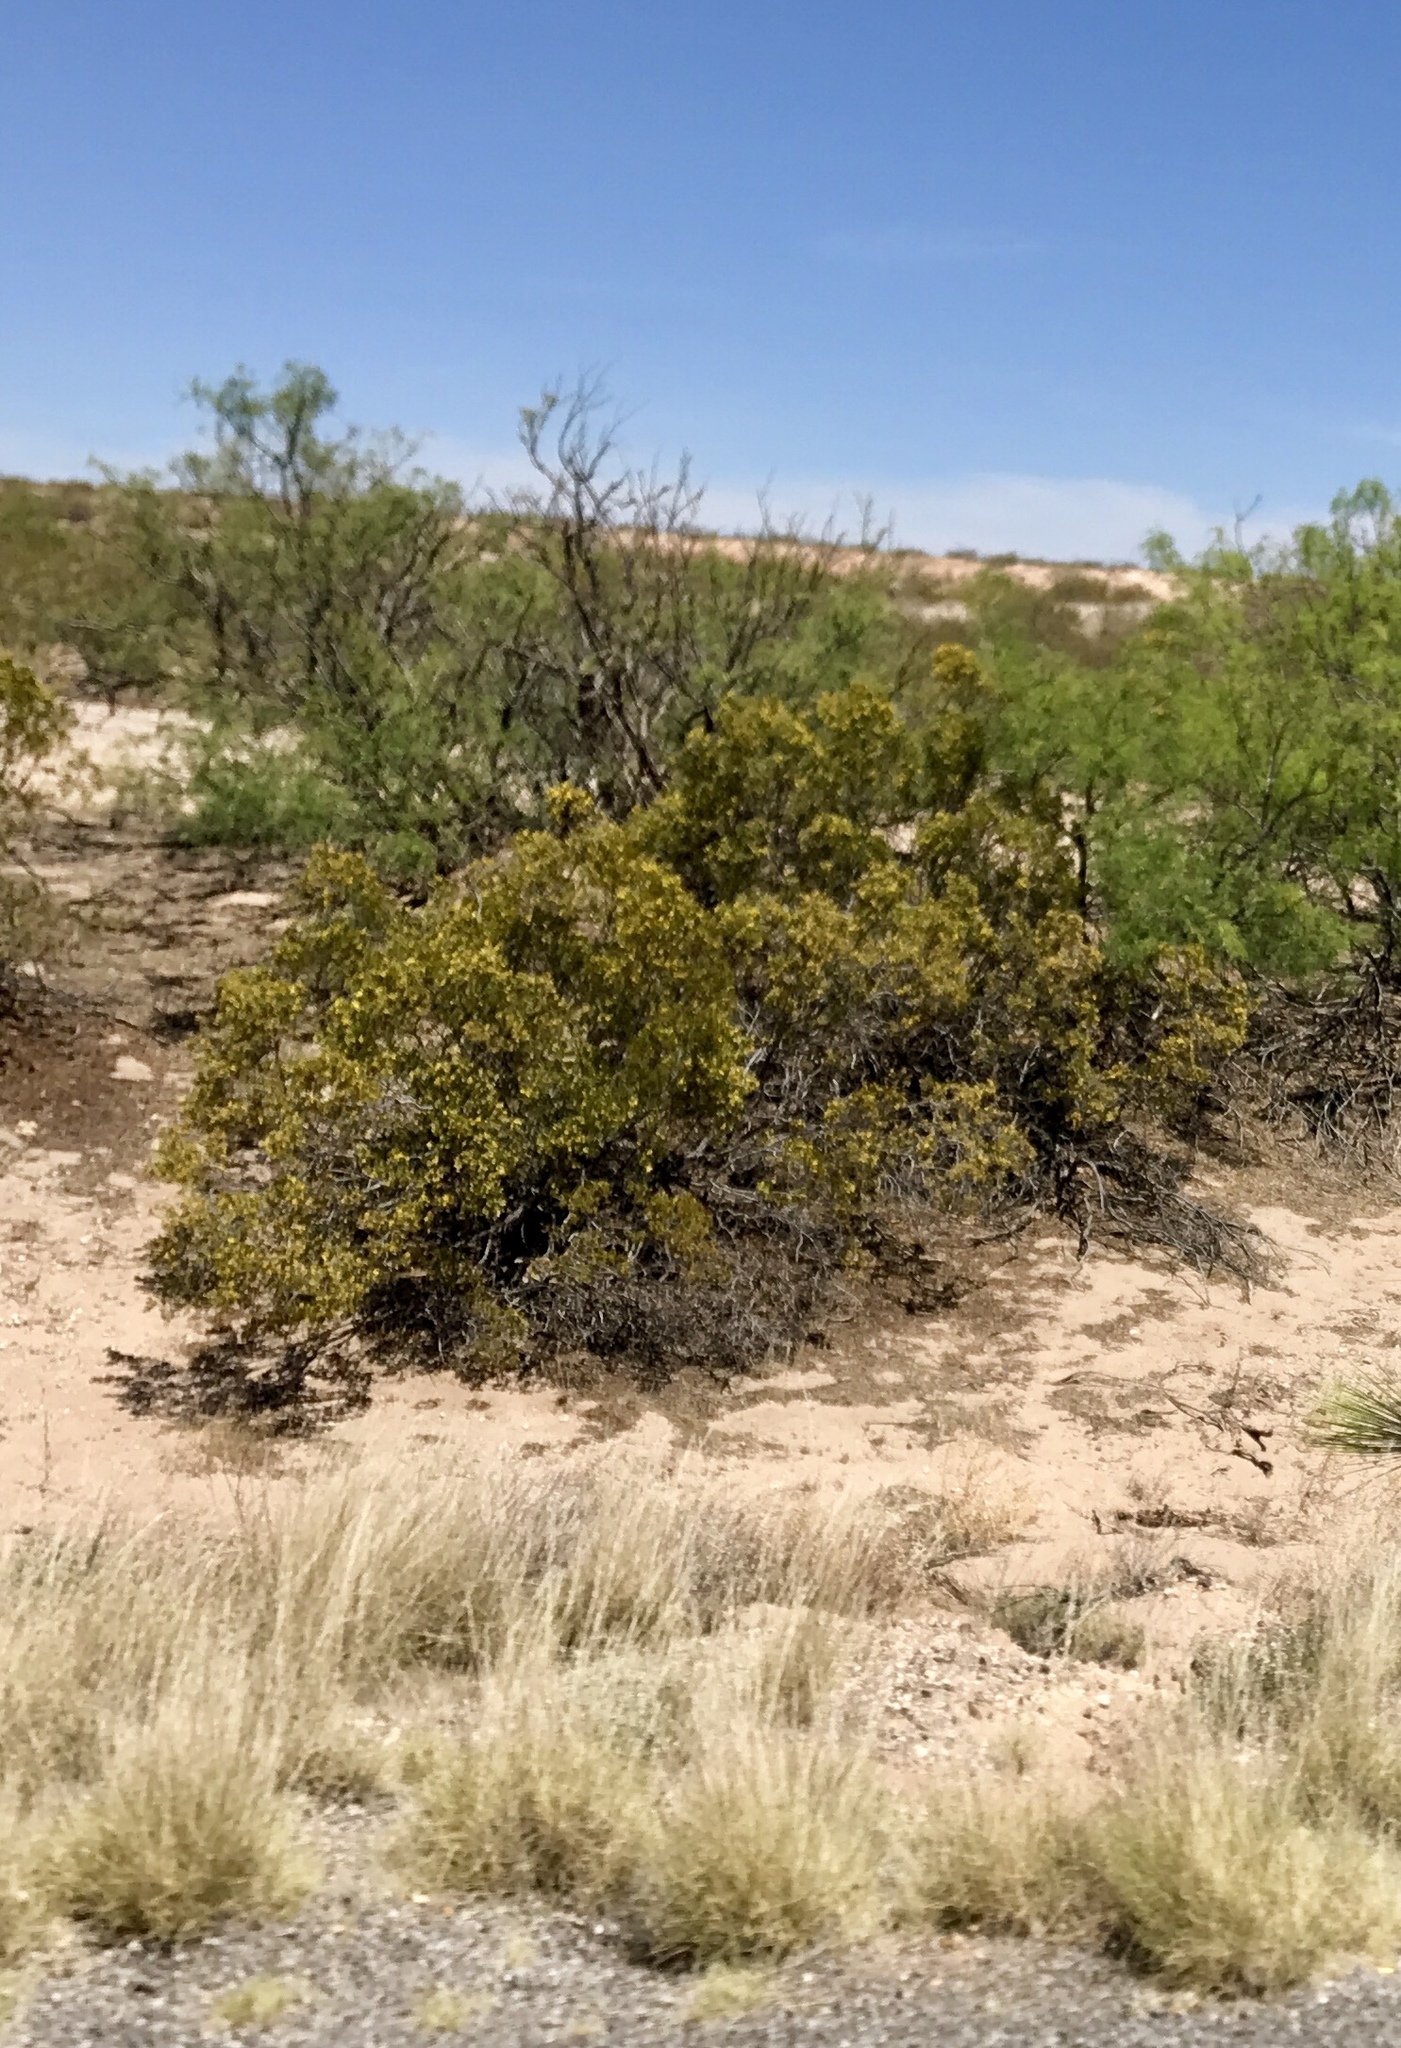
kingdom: Plantae
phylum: Tracheophyta
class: Magnoliopsida
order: Zygophyllales
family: Zygophyllaceae
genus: Larrea
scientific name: Larrea tridentata
